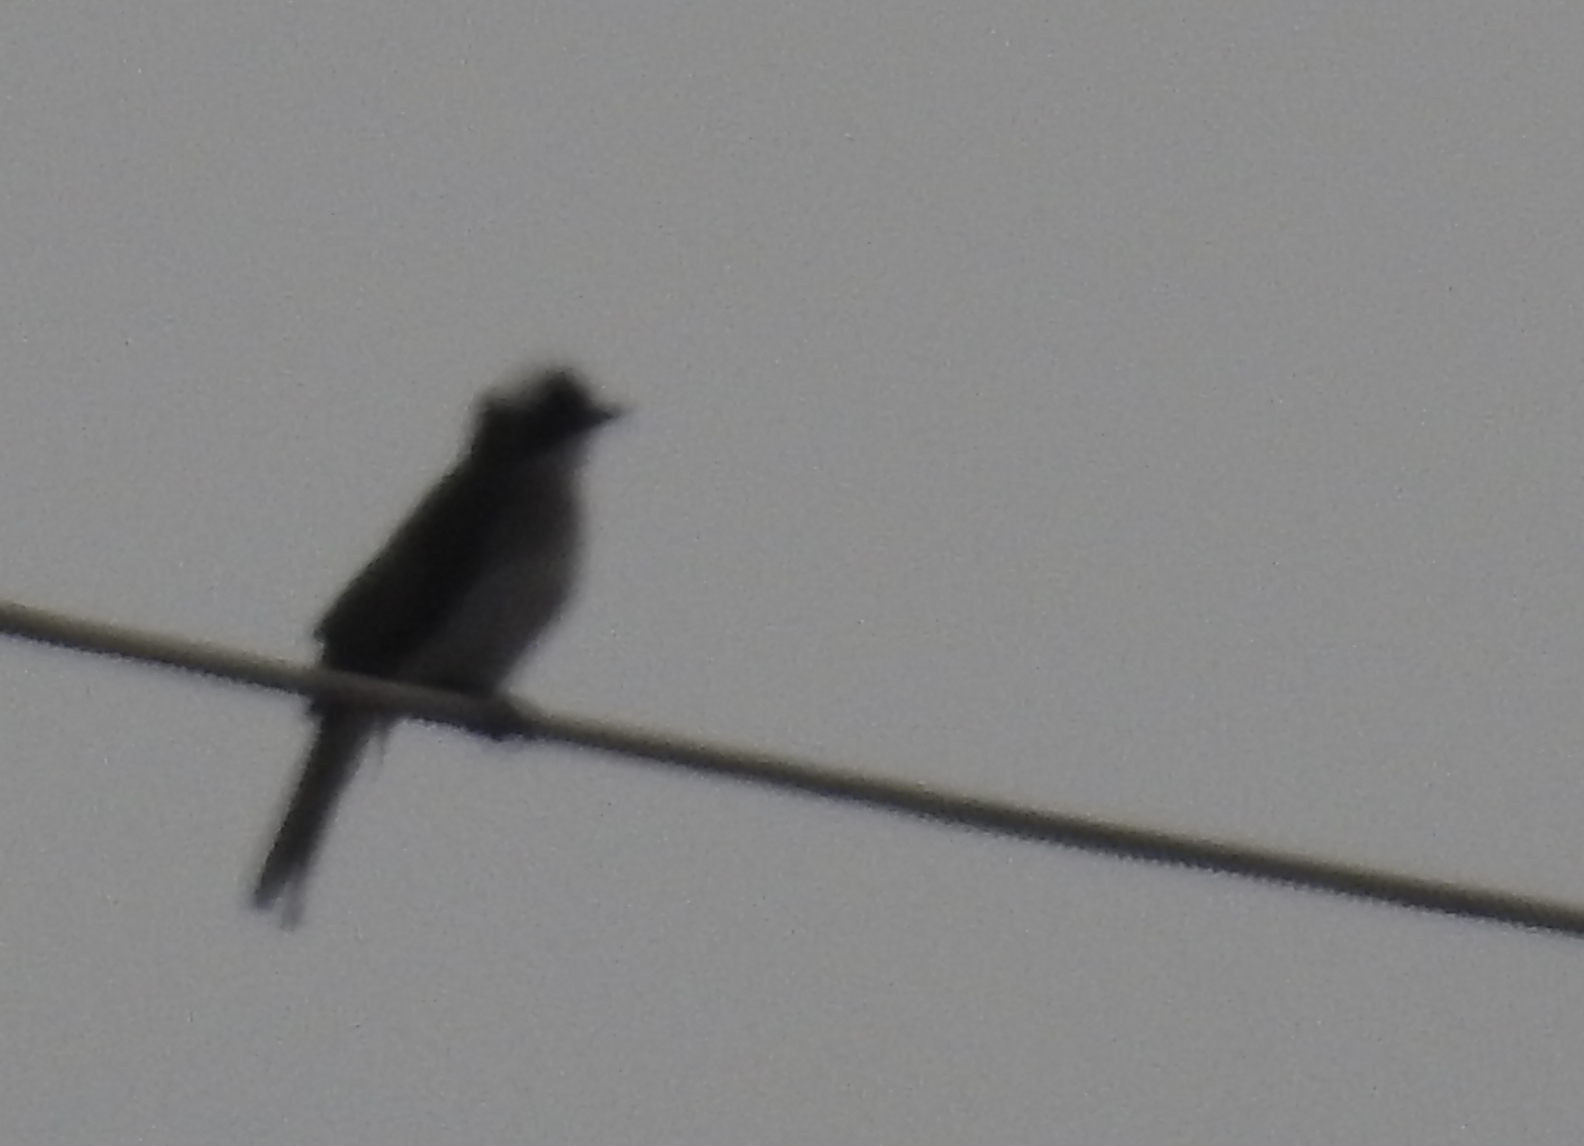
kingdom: Animalia
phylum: Chordata
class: Aves
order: Passeriformes
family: Pycnonotidae
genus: Pycnonotus
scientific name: Pycnonotus sinensis
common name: Light-vented bulbul
